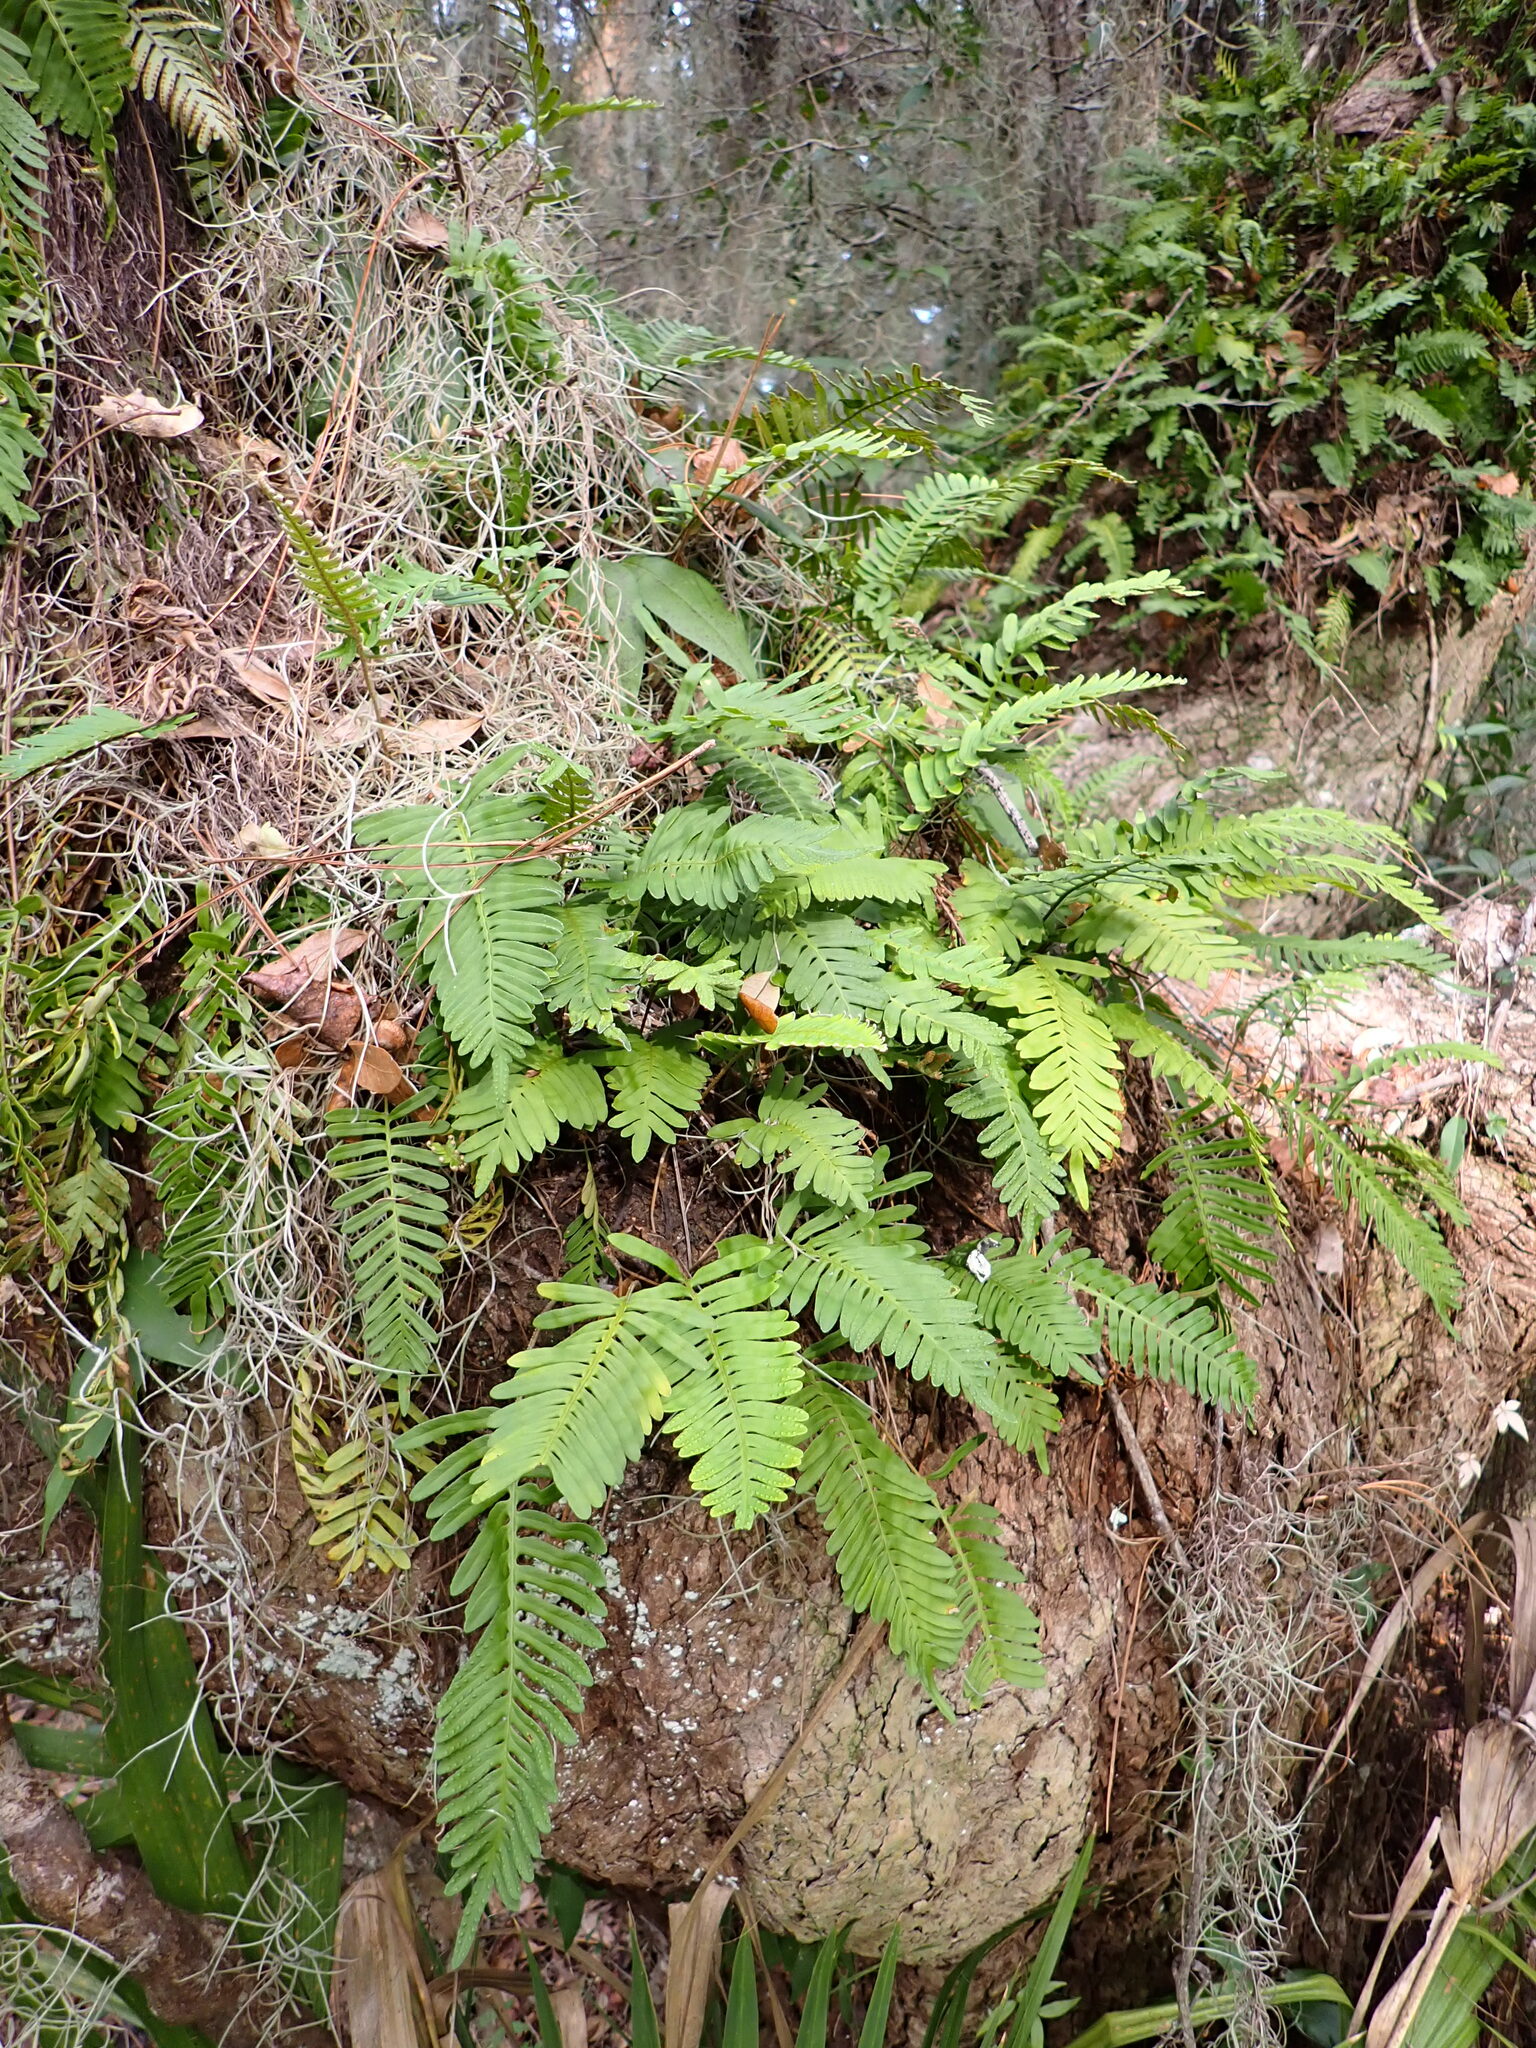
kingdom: Plantae
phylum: Tracheophyta
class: Polypodiopsida
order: Polypodiales
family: Polypodiaceae
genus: Pleopeltis
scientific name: Pleopeltis michauxiana
